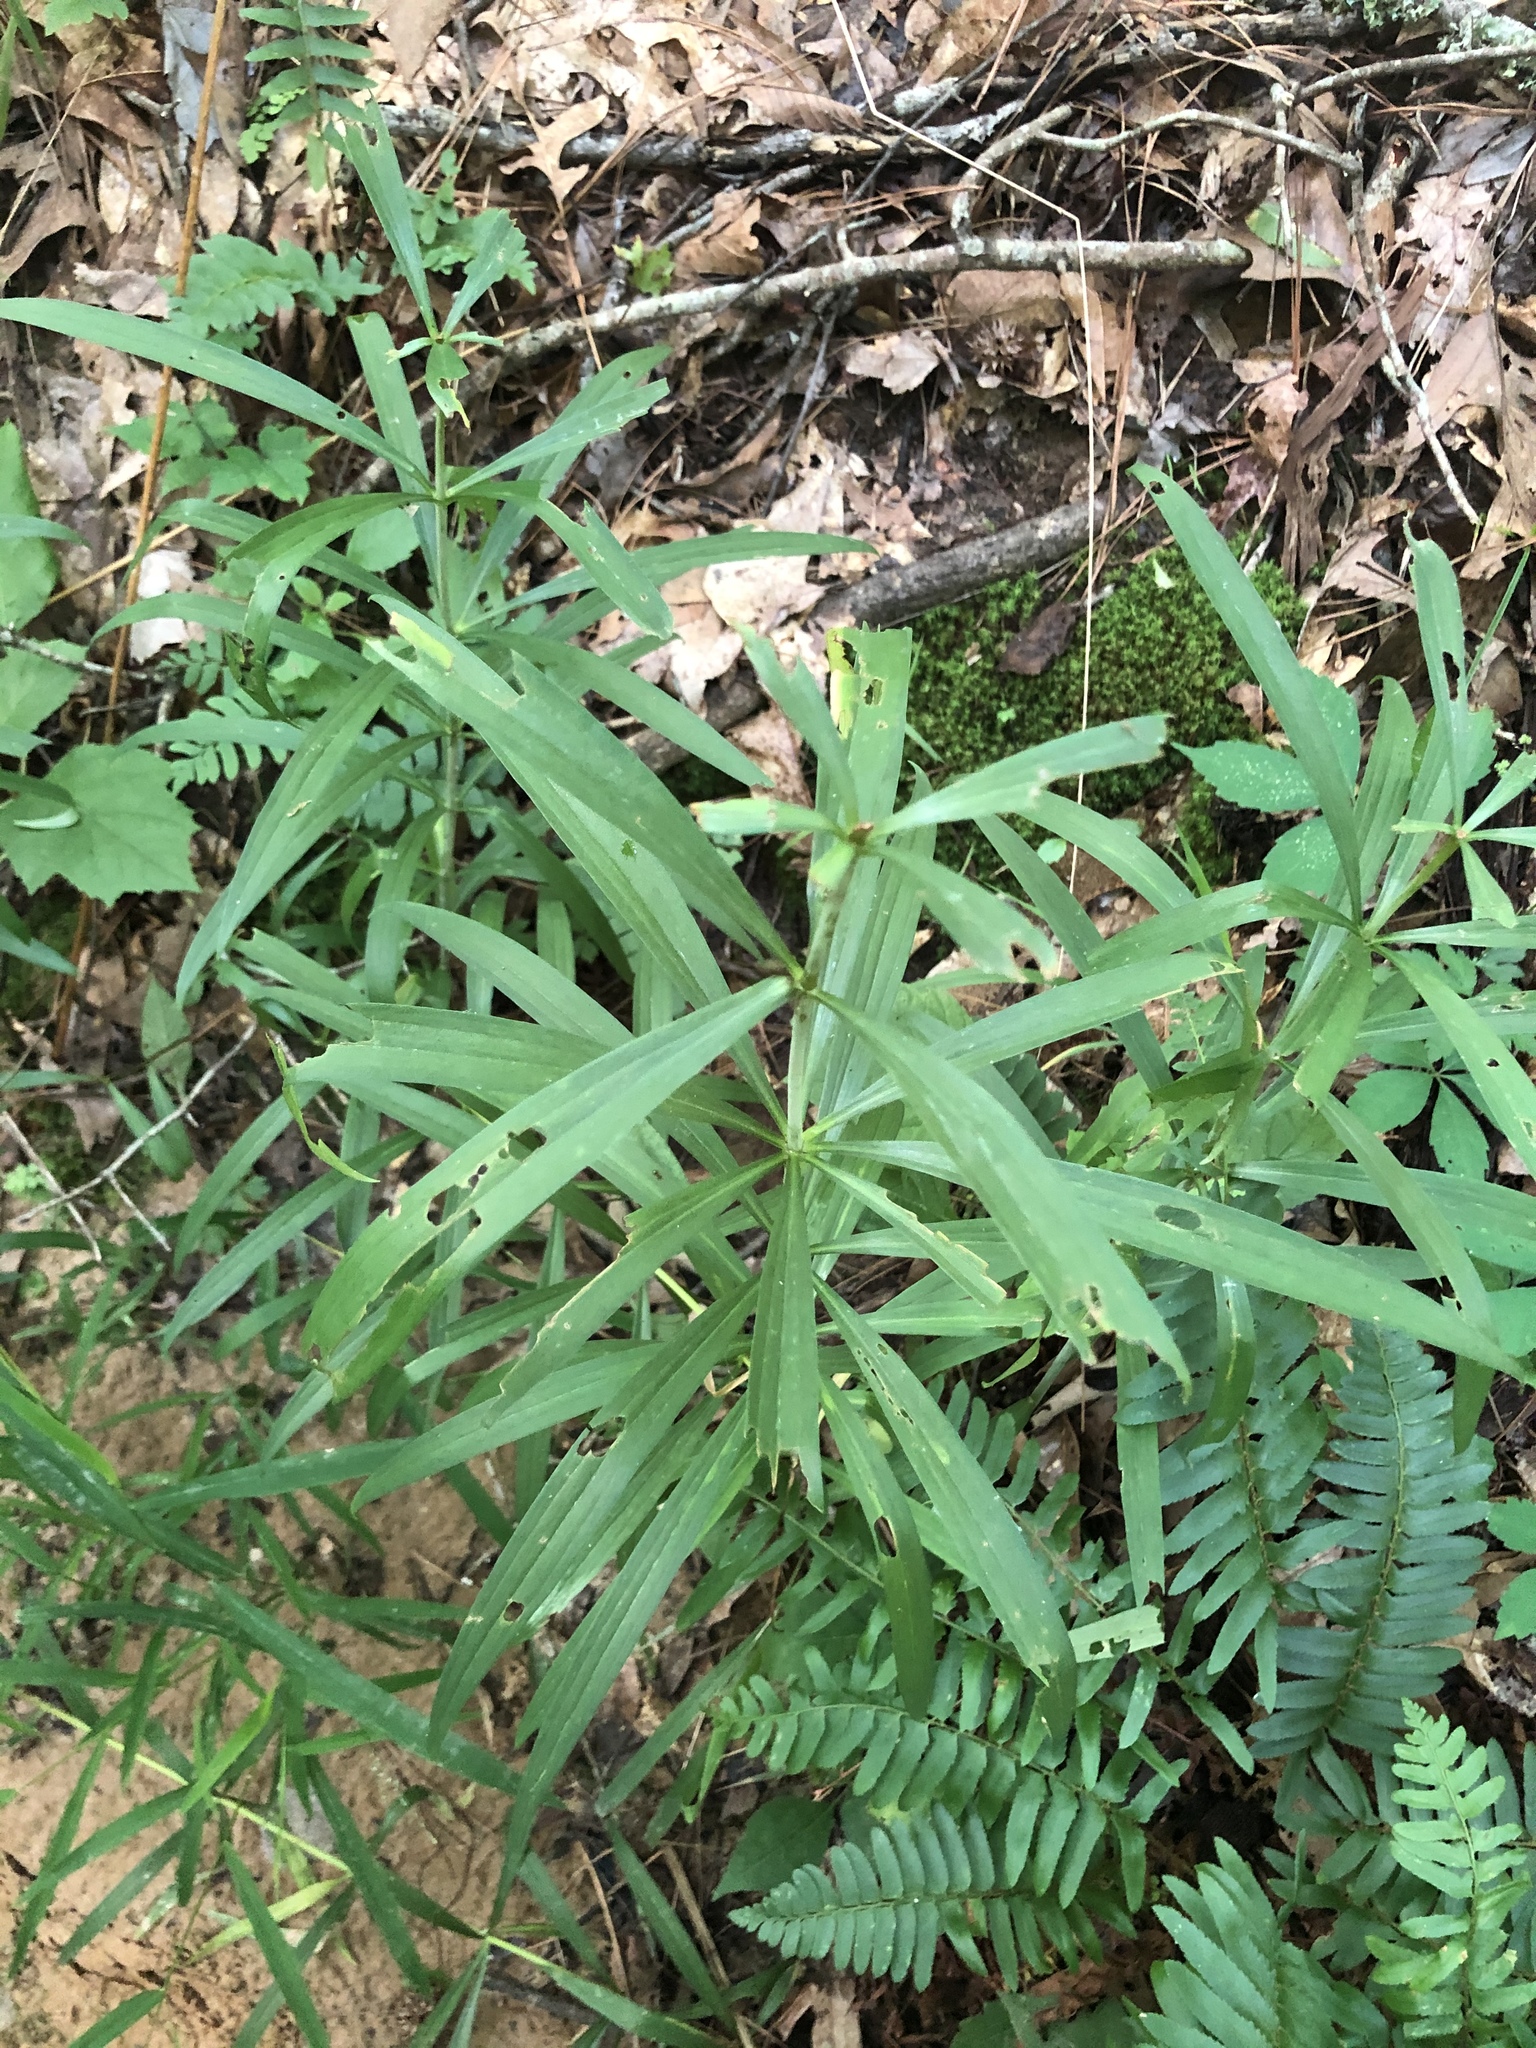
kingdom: Plantae
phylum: Tracheophyta
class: Liliopsida
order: Liliales
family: Liliaceae
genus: Lilium
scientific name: Lilium superbum
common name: American turk's-cap lily
